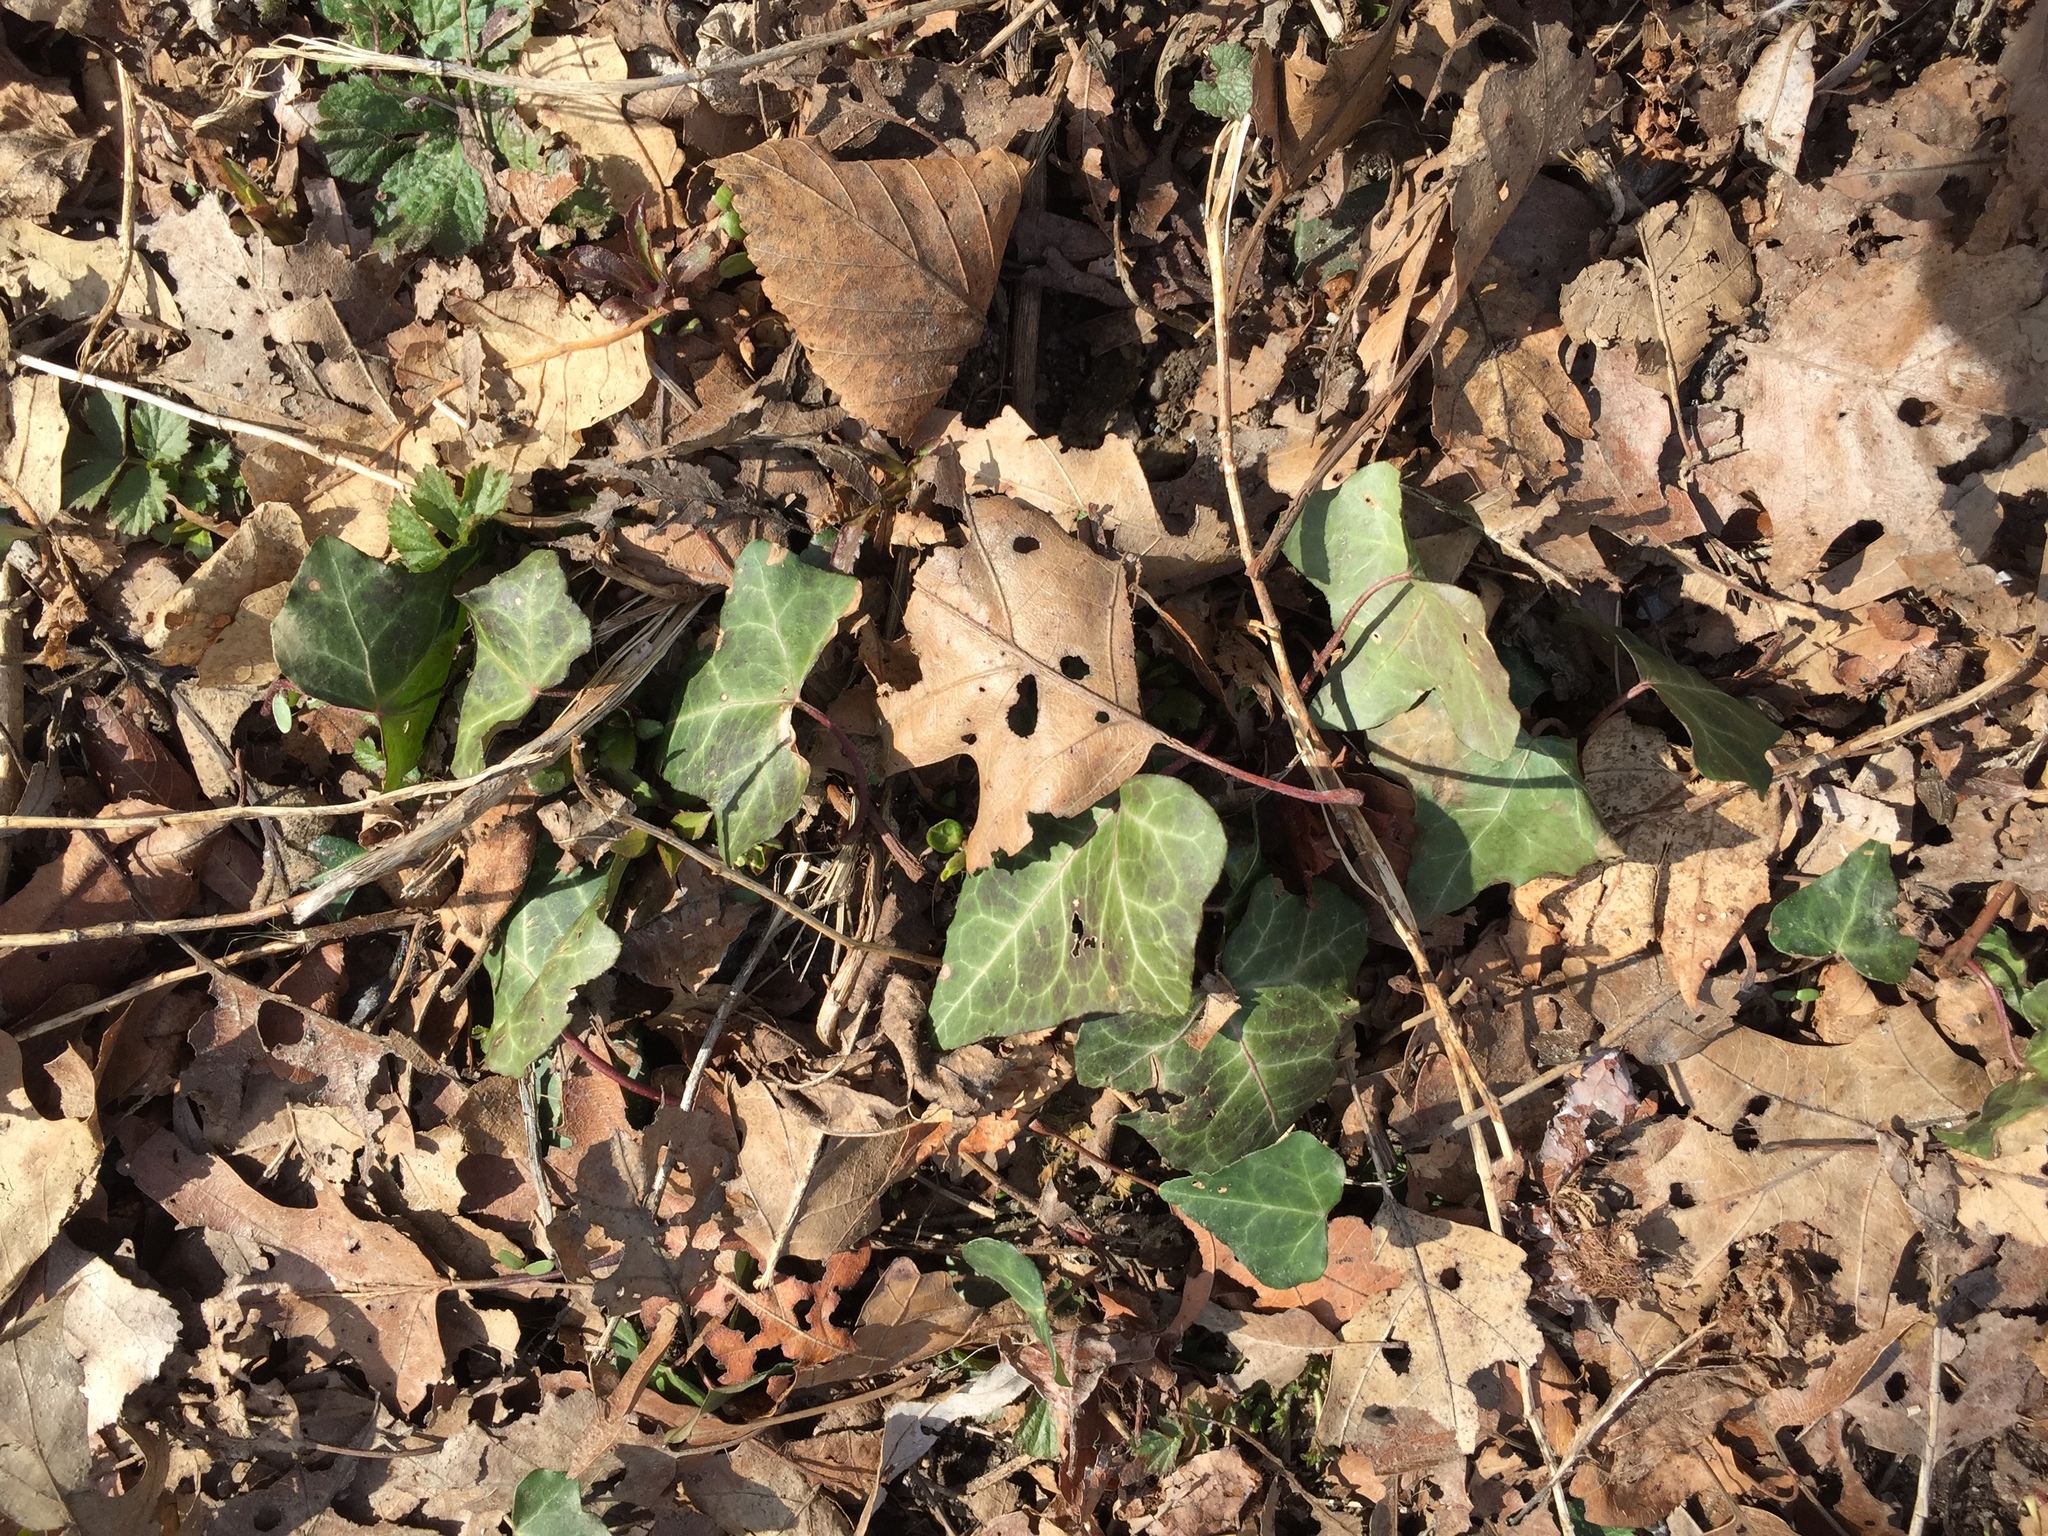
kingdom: Plantae
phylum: Tracheophyta
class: Magnoliopsida
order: Apiales
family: Araliaceae
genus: Hedera
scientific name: Hedera helix
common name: Ivy
